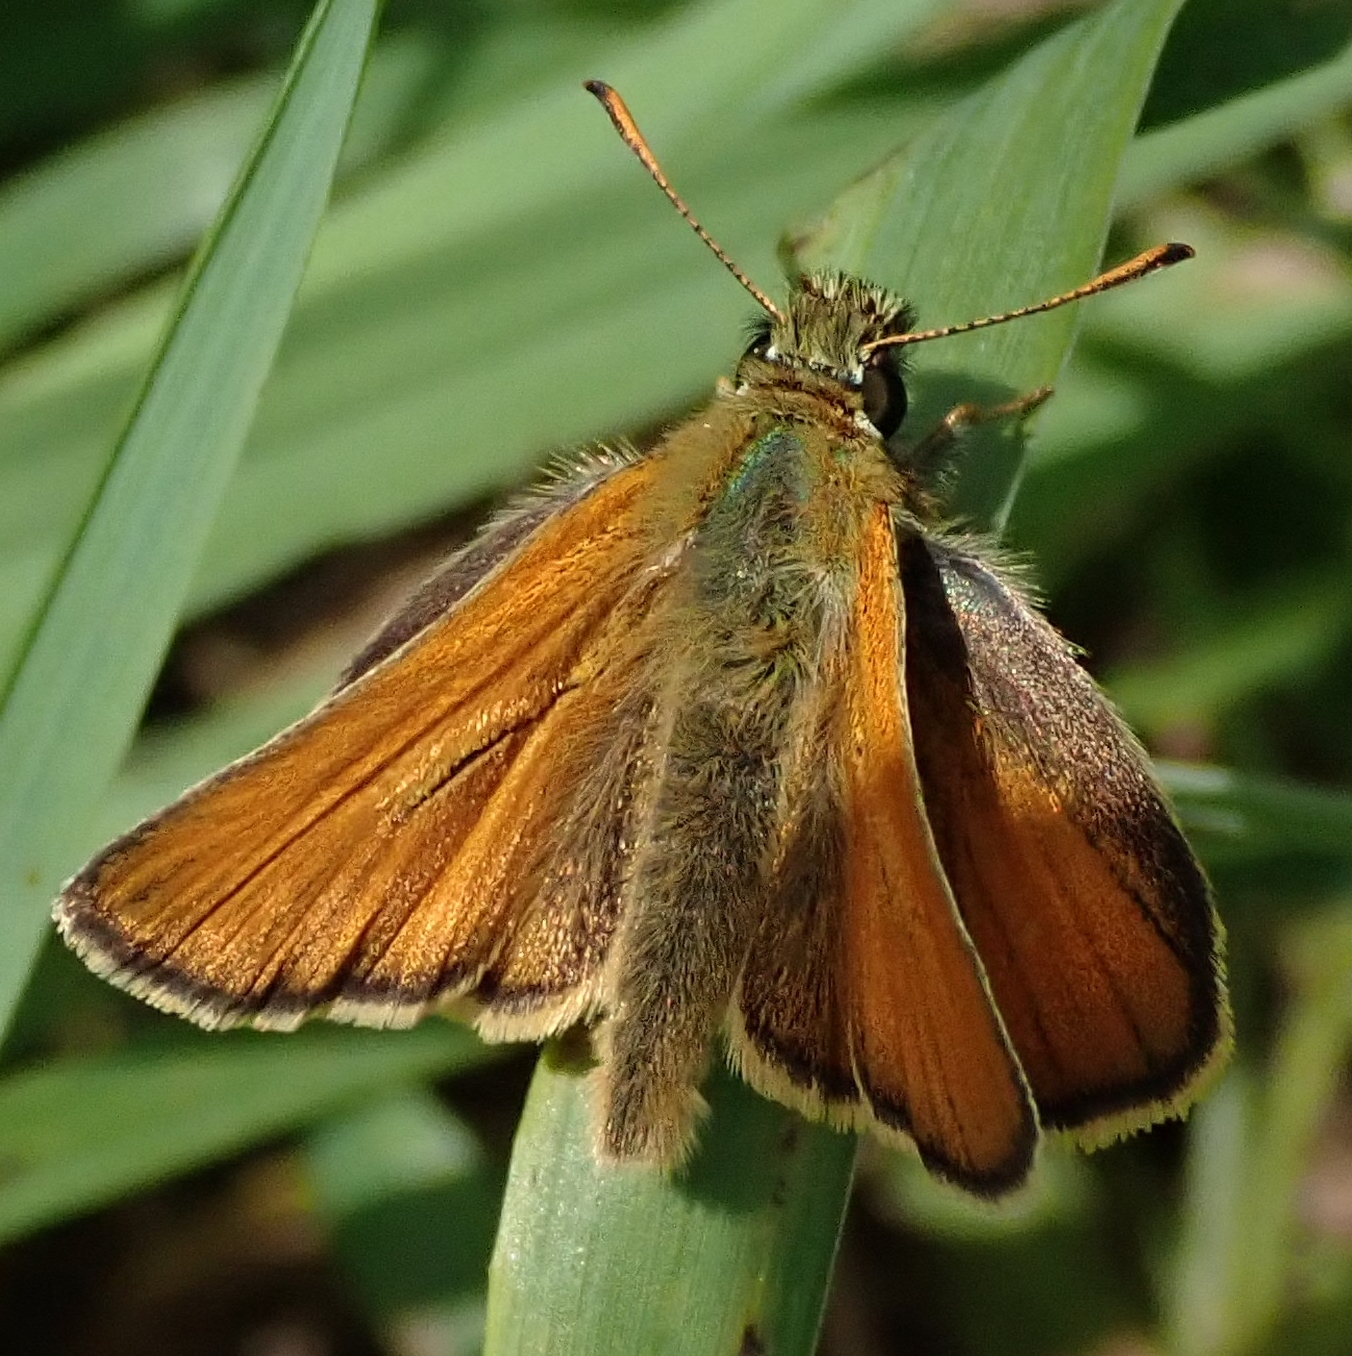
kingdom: Animalia
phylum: Arthropoda
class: Insecta
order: Lepidoptera
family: Hesperiidae
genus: Thymelicus
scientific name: Thymelicus sylvestris
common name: Small skipper
